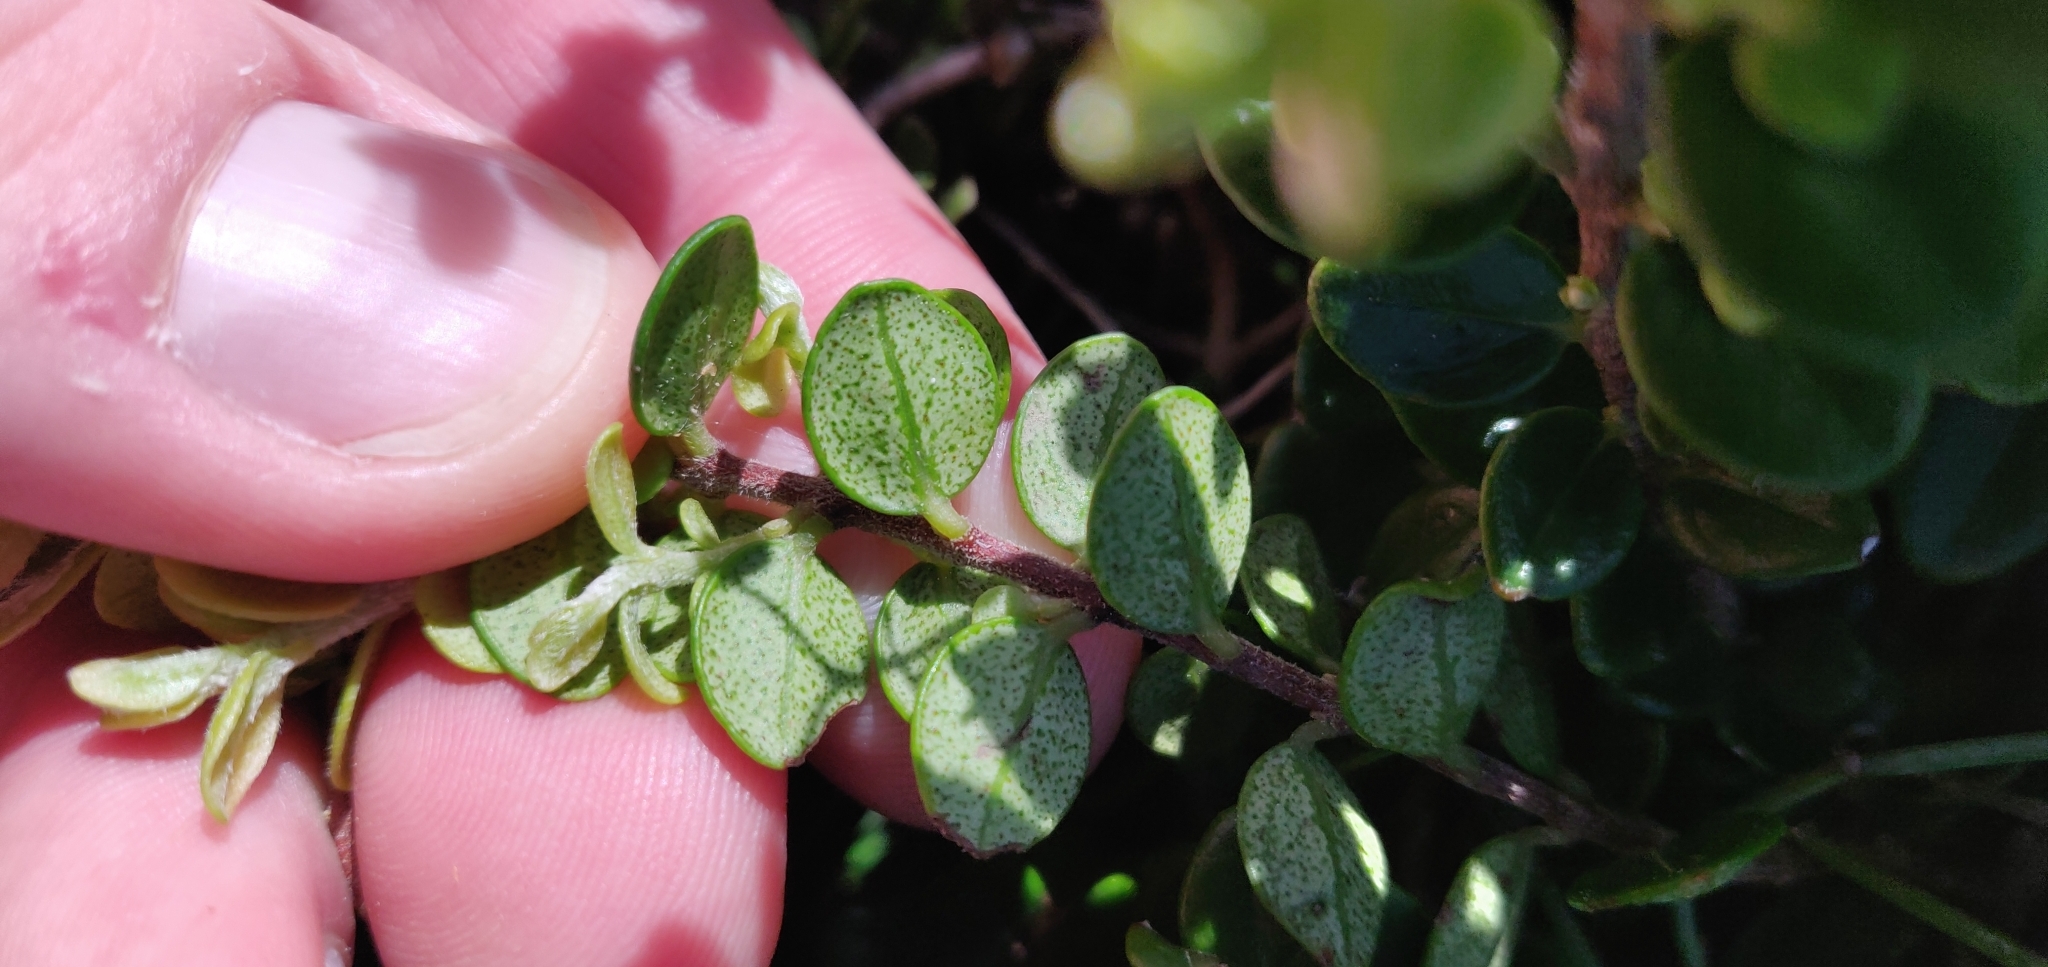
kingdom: Plantae
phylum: Tracheophyta
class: Magnoliopsida
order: Myrtales
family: Myrtaceae
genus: Metrosideros
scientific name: Metrosideros perforata
